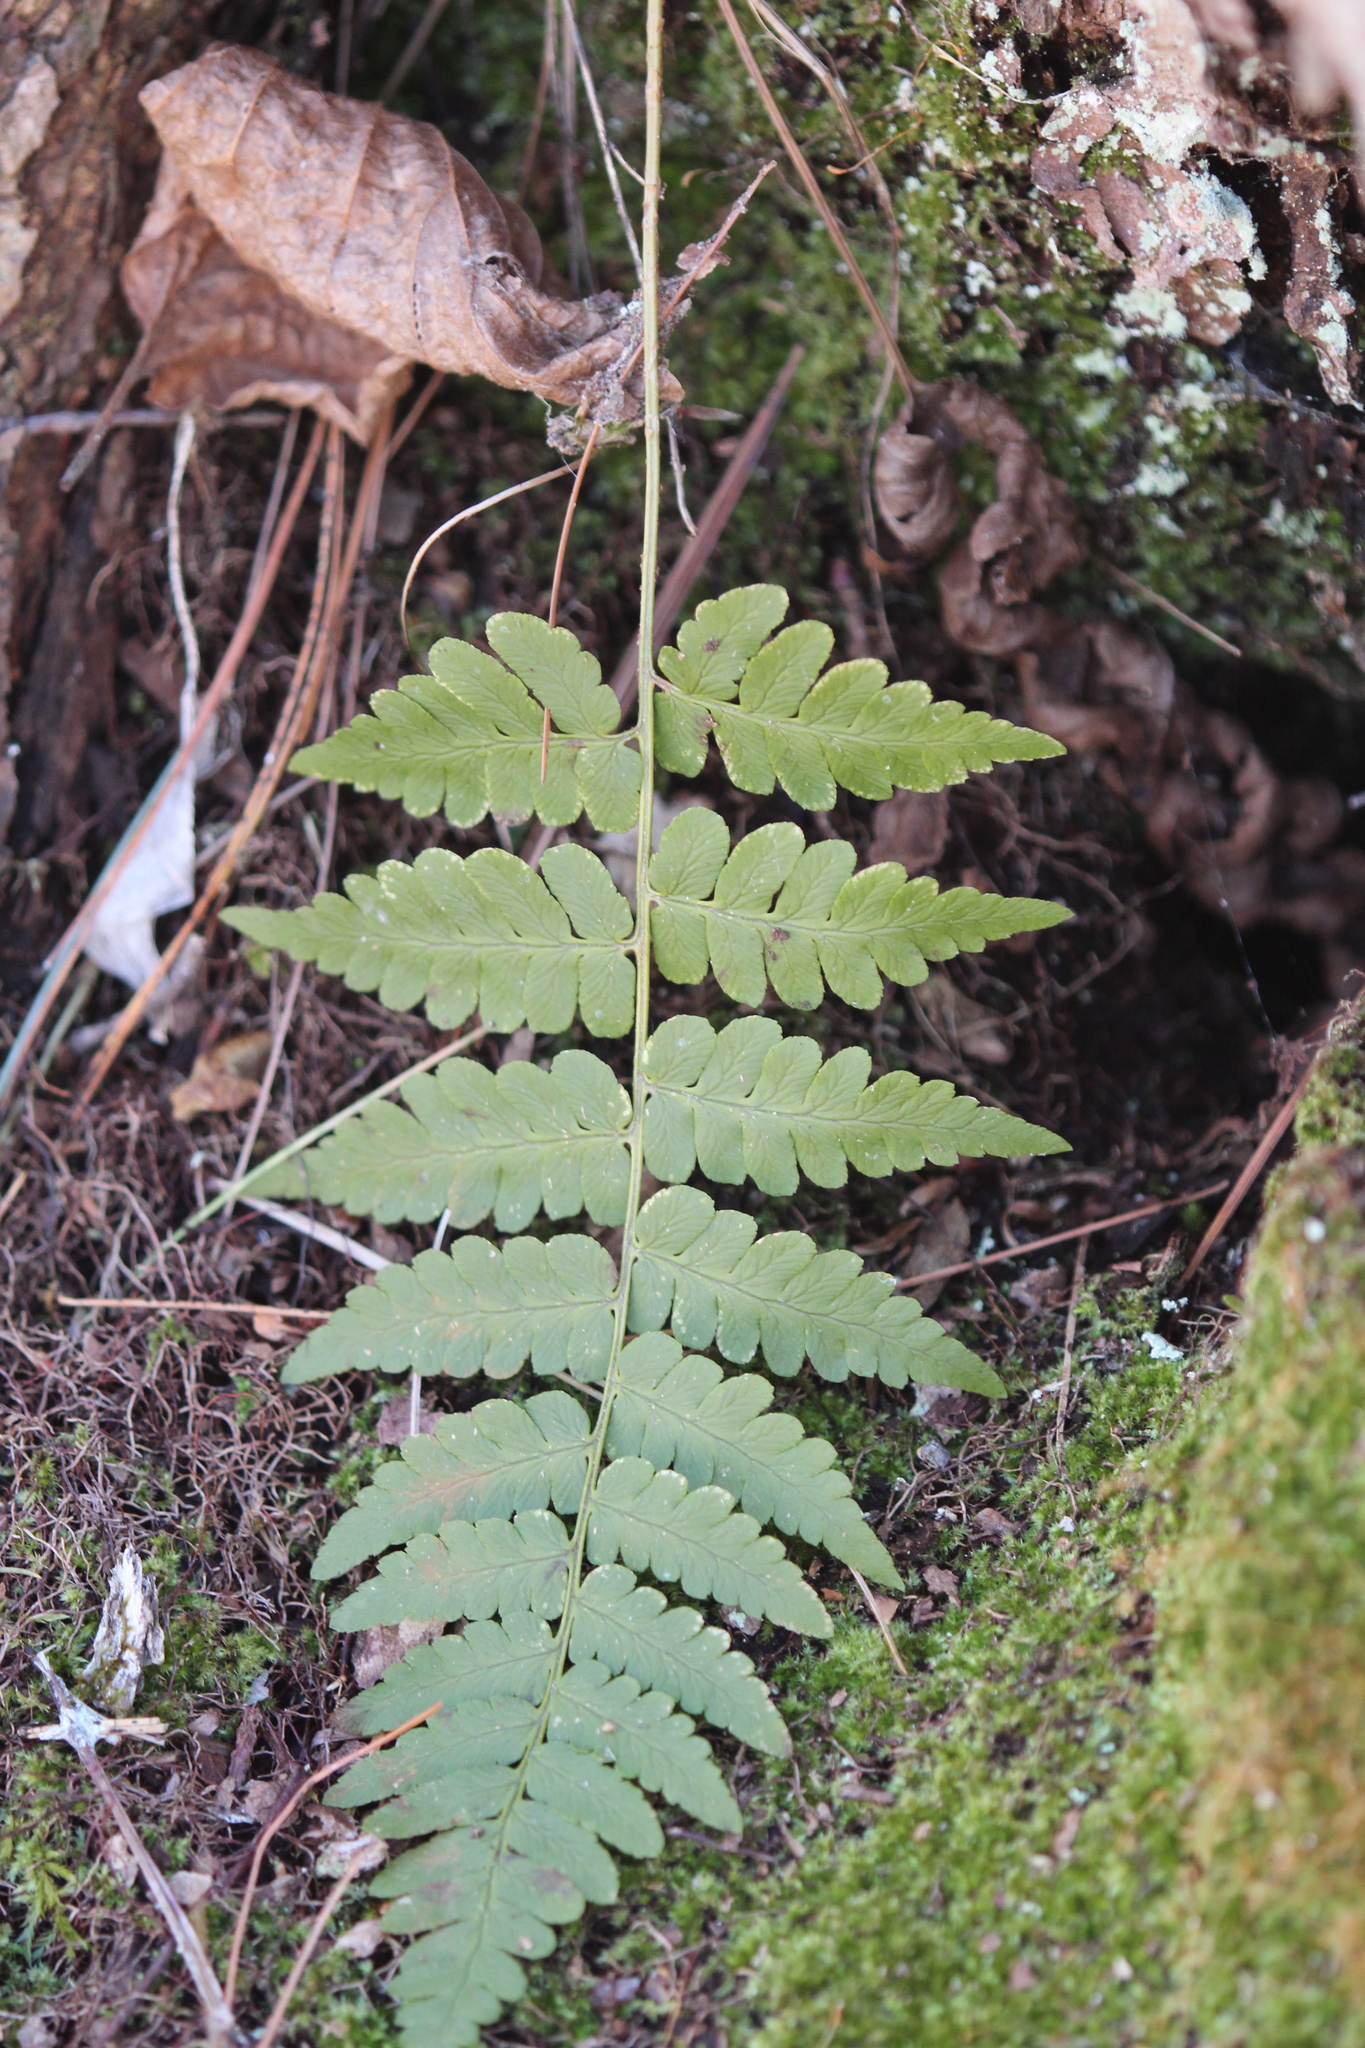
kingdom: Plantae
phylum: Tracheophyta
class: Polypodiopsida
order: Polypodiales
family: Dryopteridaceae
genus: Dryopteris
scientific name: Dryopteris cristata
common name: Crested wood fern
